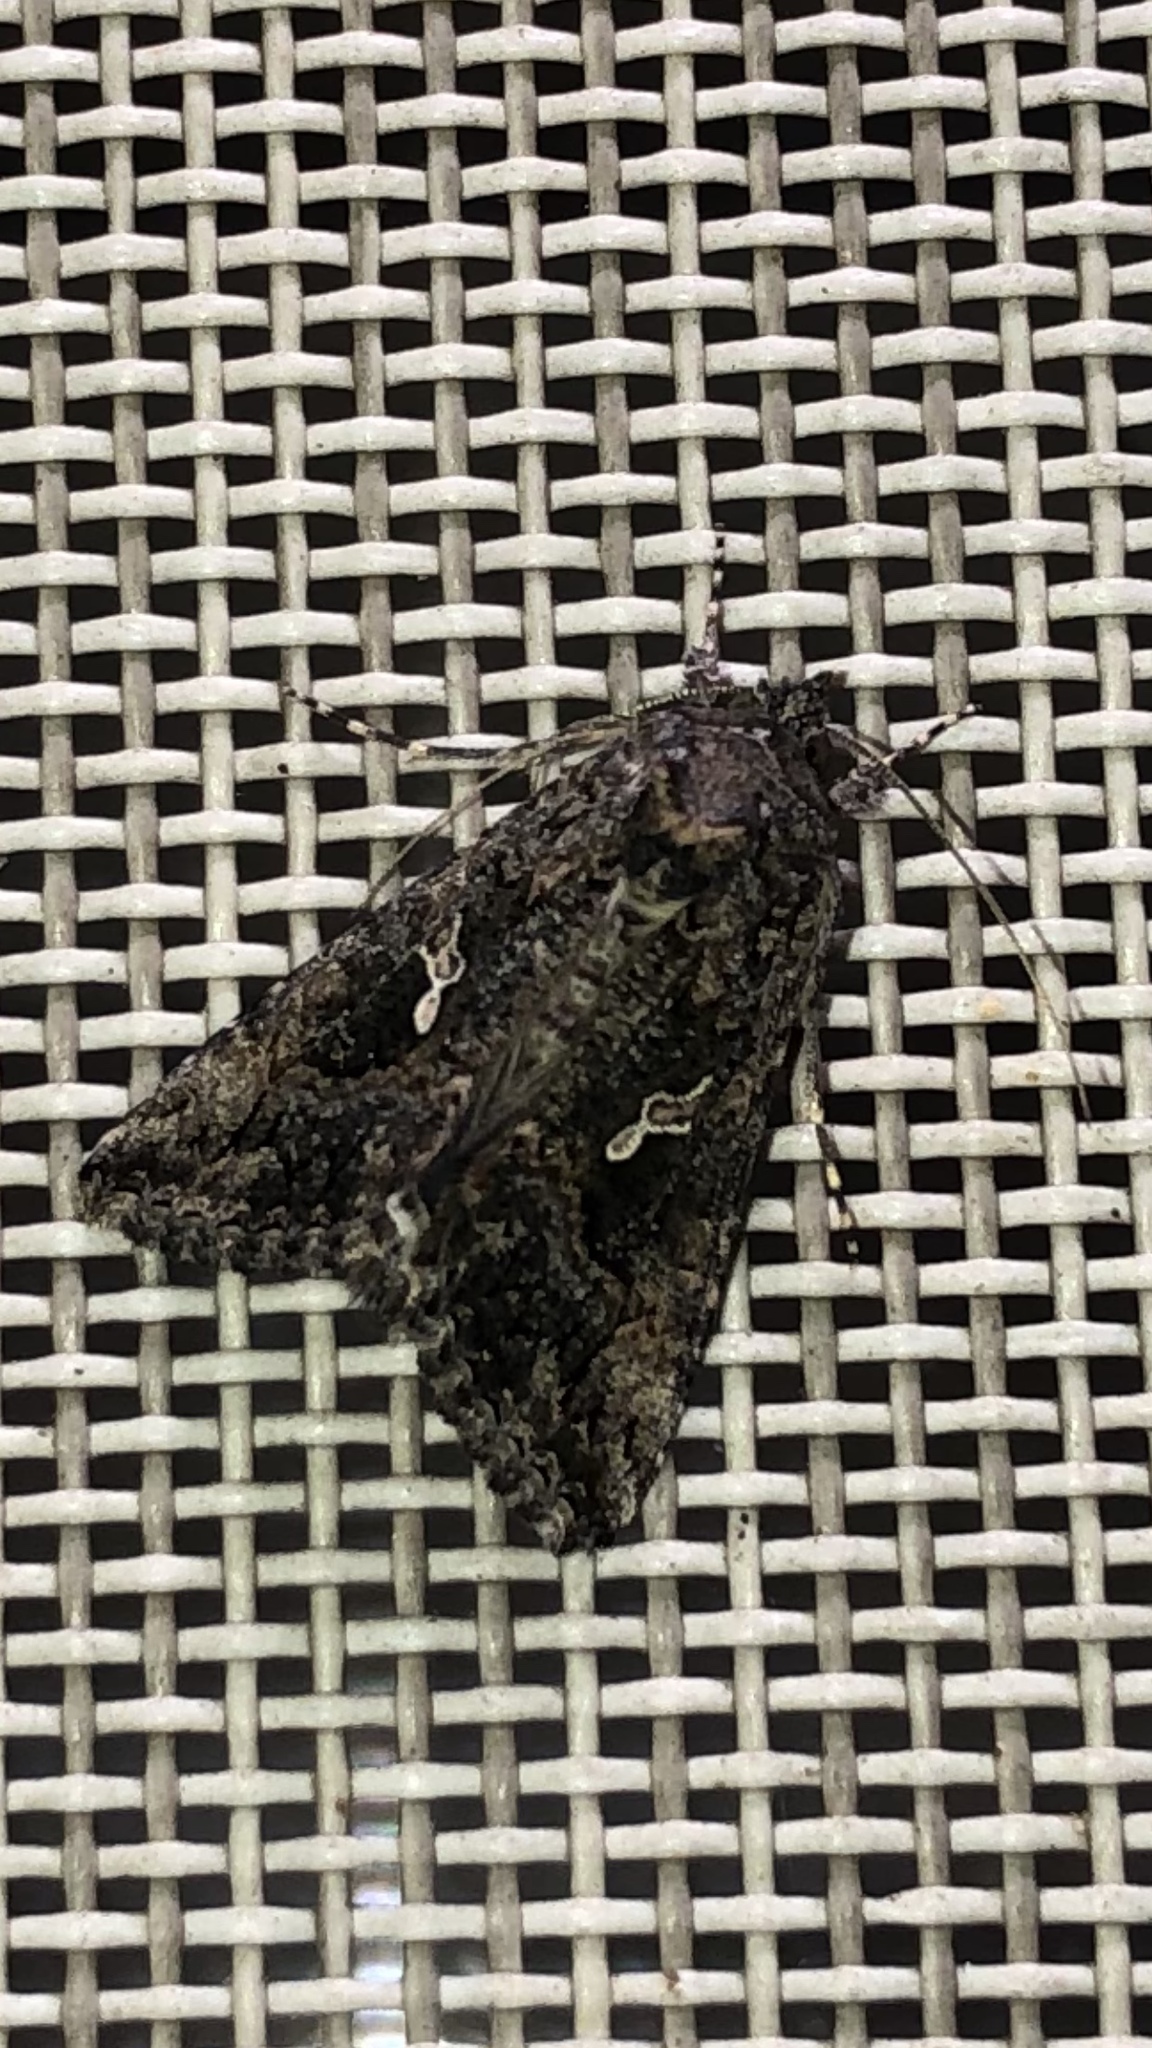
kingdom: Animalia
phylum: Arthropoda
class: Insecta
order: Lepidoptera
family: Noctuidae
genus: Trichoplusia
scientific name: Trichoplusia ni
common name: Ni moth
